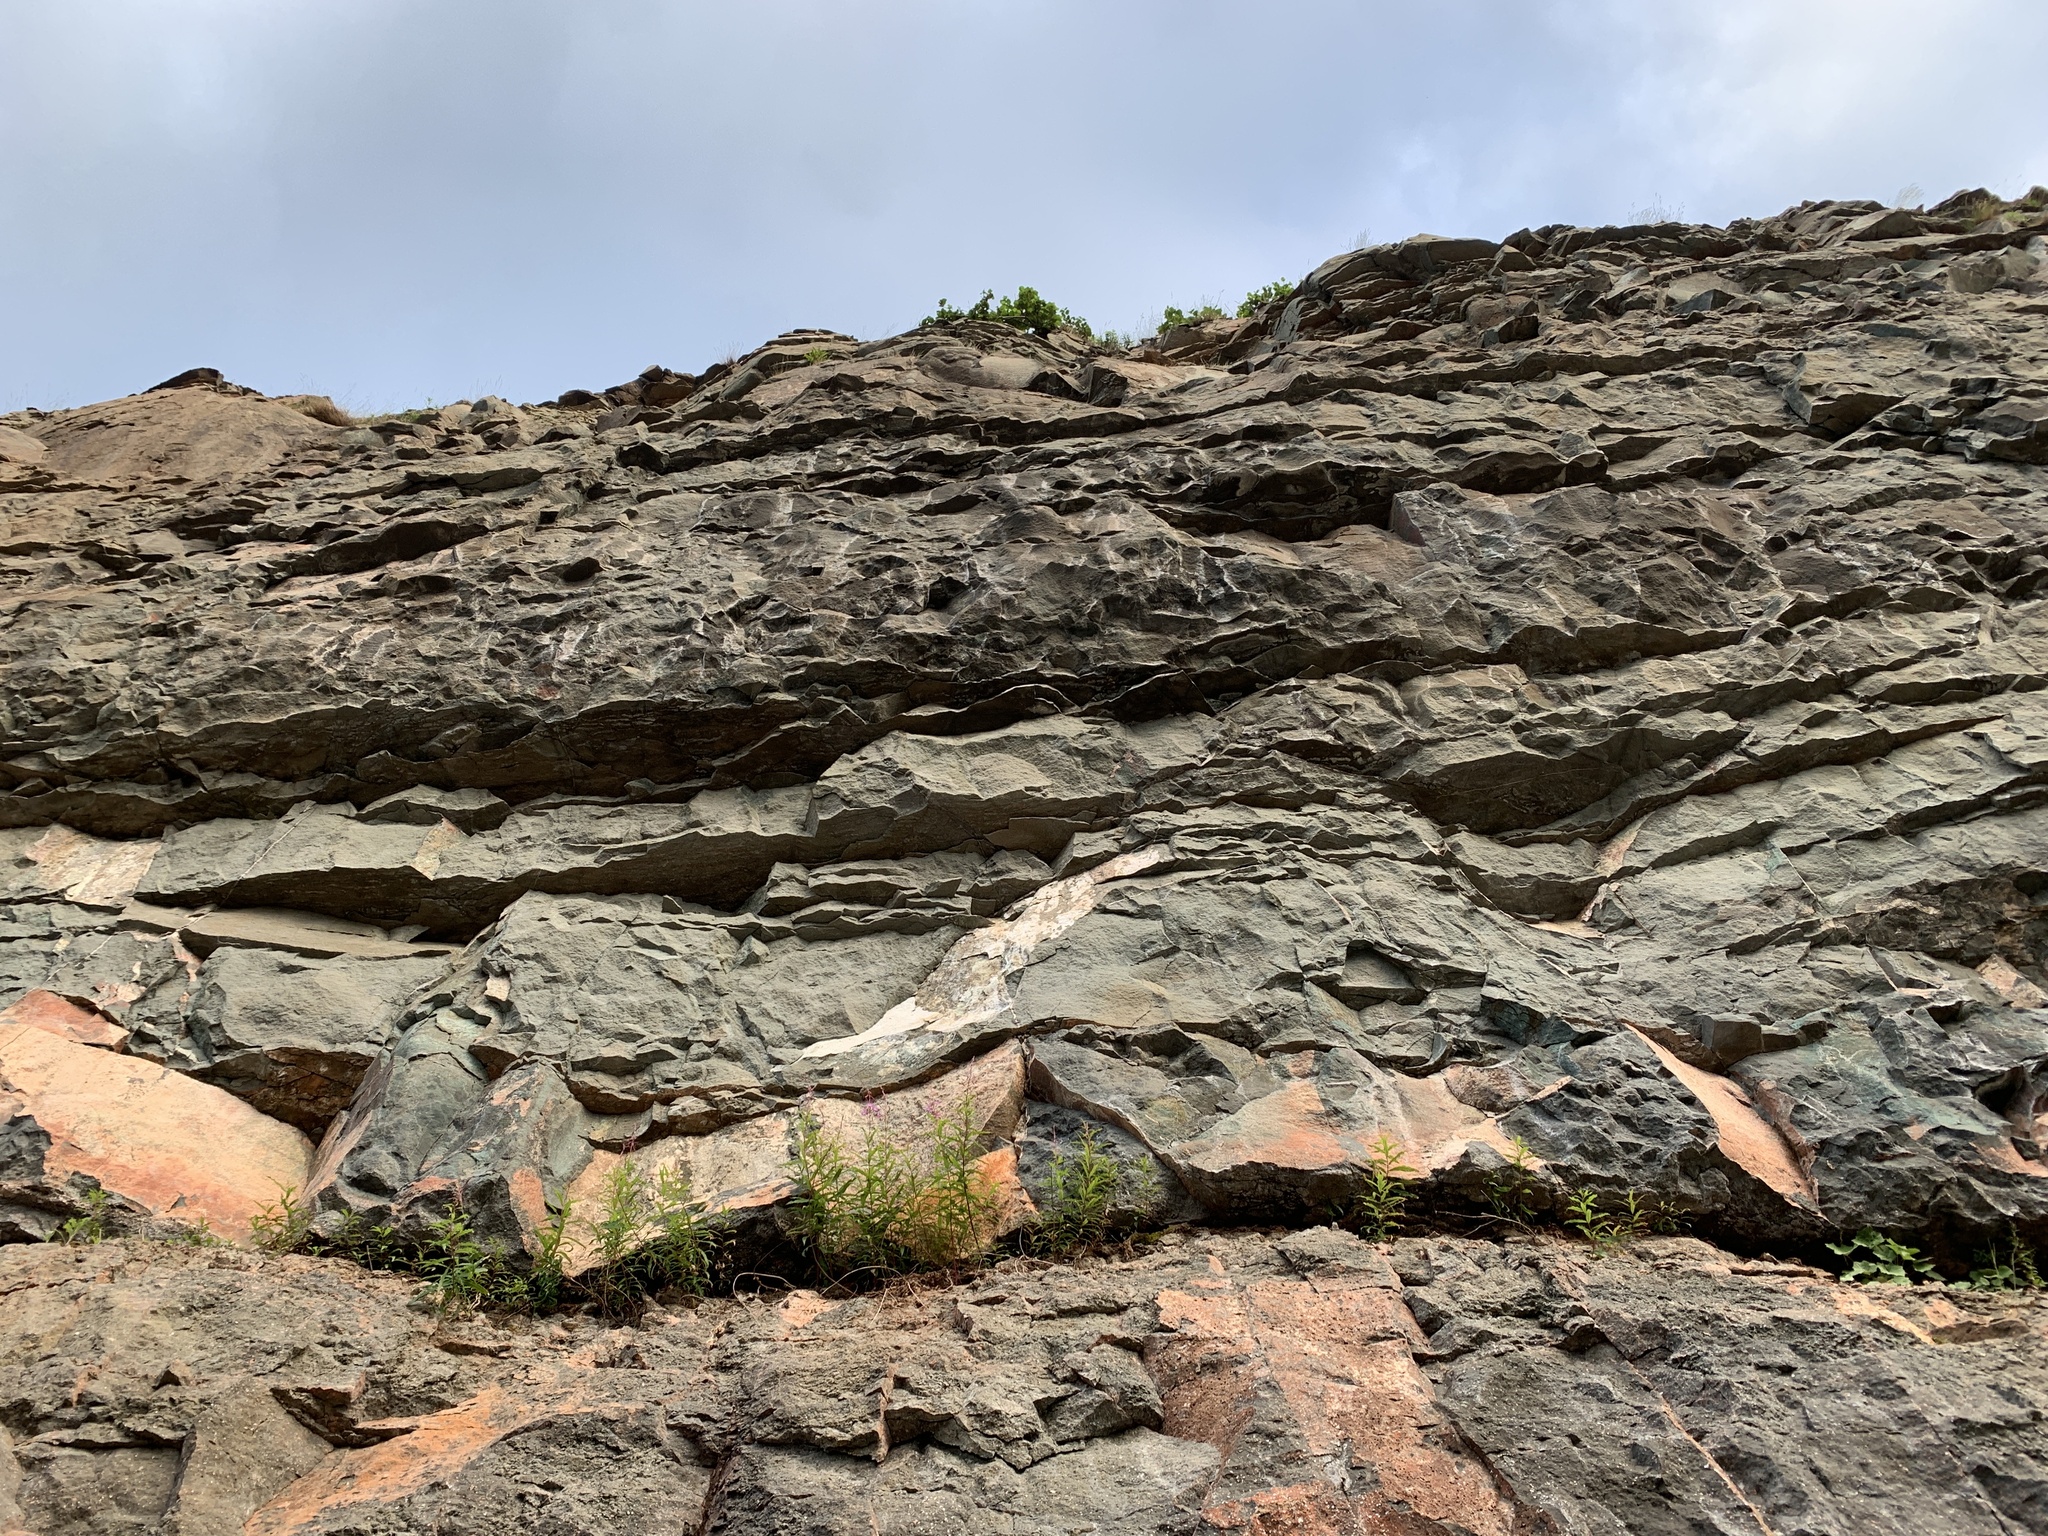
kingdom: Plantae
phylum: Tracheophyta
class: Magnoliopsida
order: Myrtales
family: Onagraceae
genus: Chamaenerion
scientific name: Chamaenerion angustifolium
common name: Fireweed
